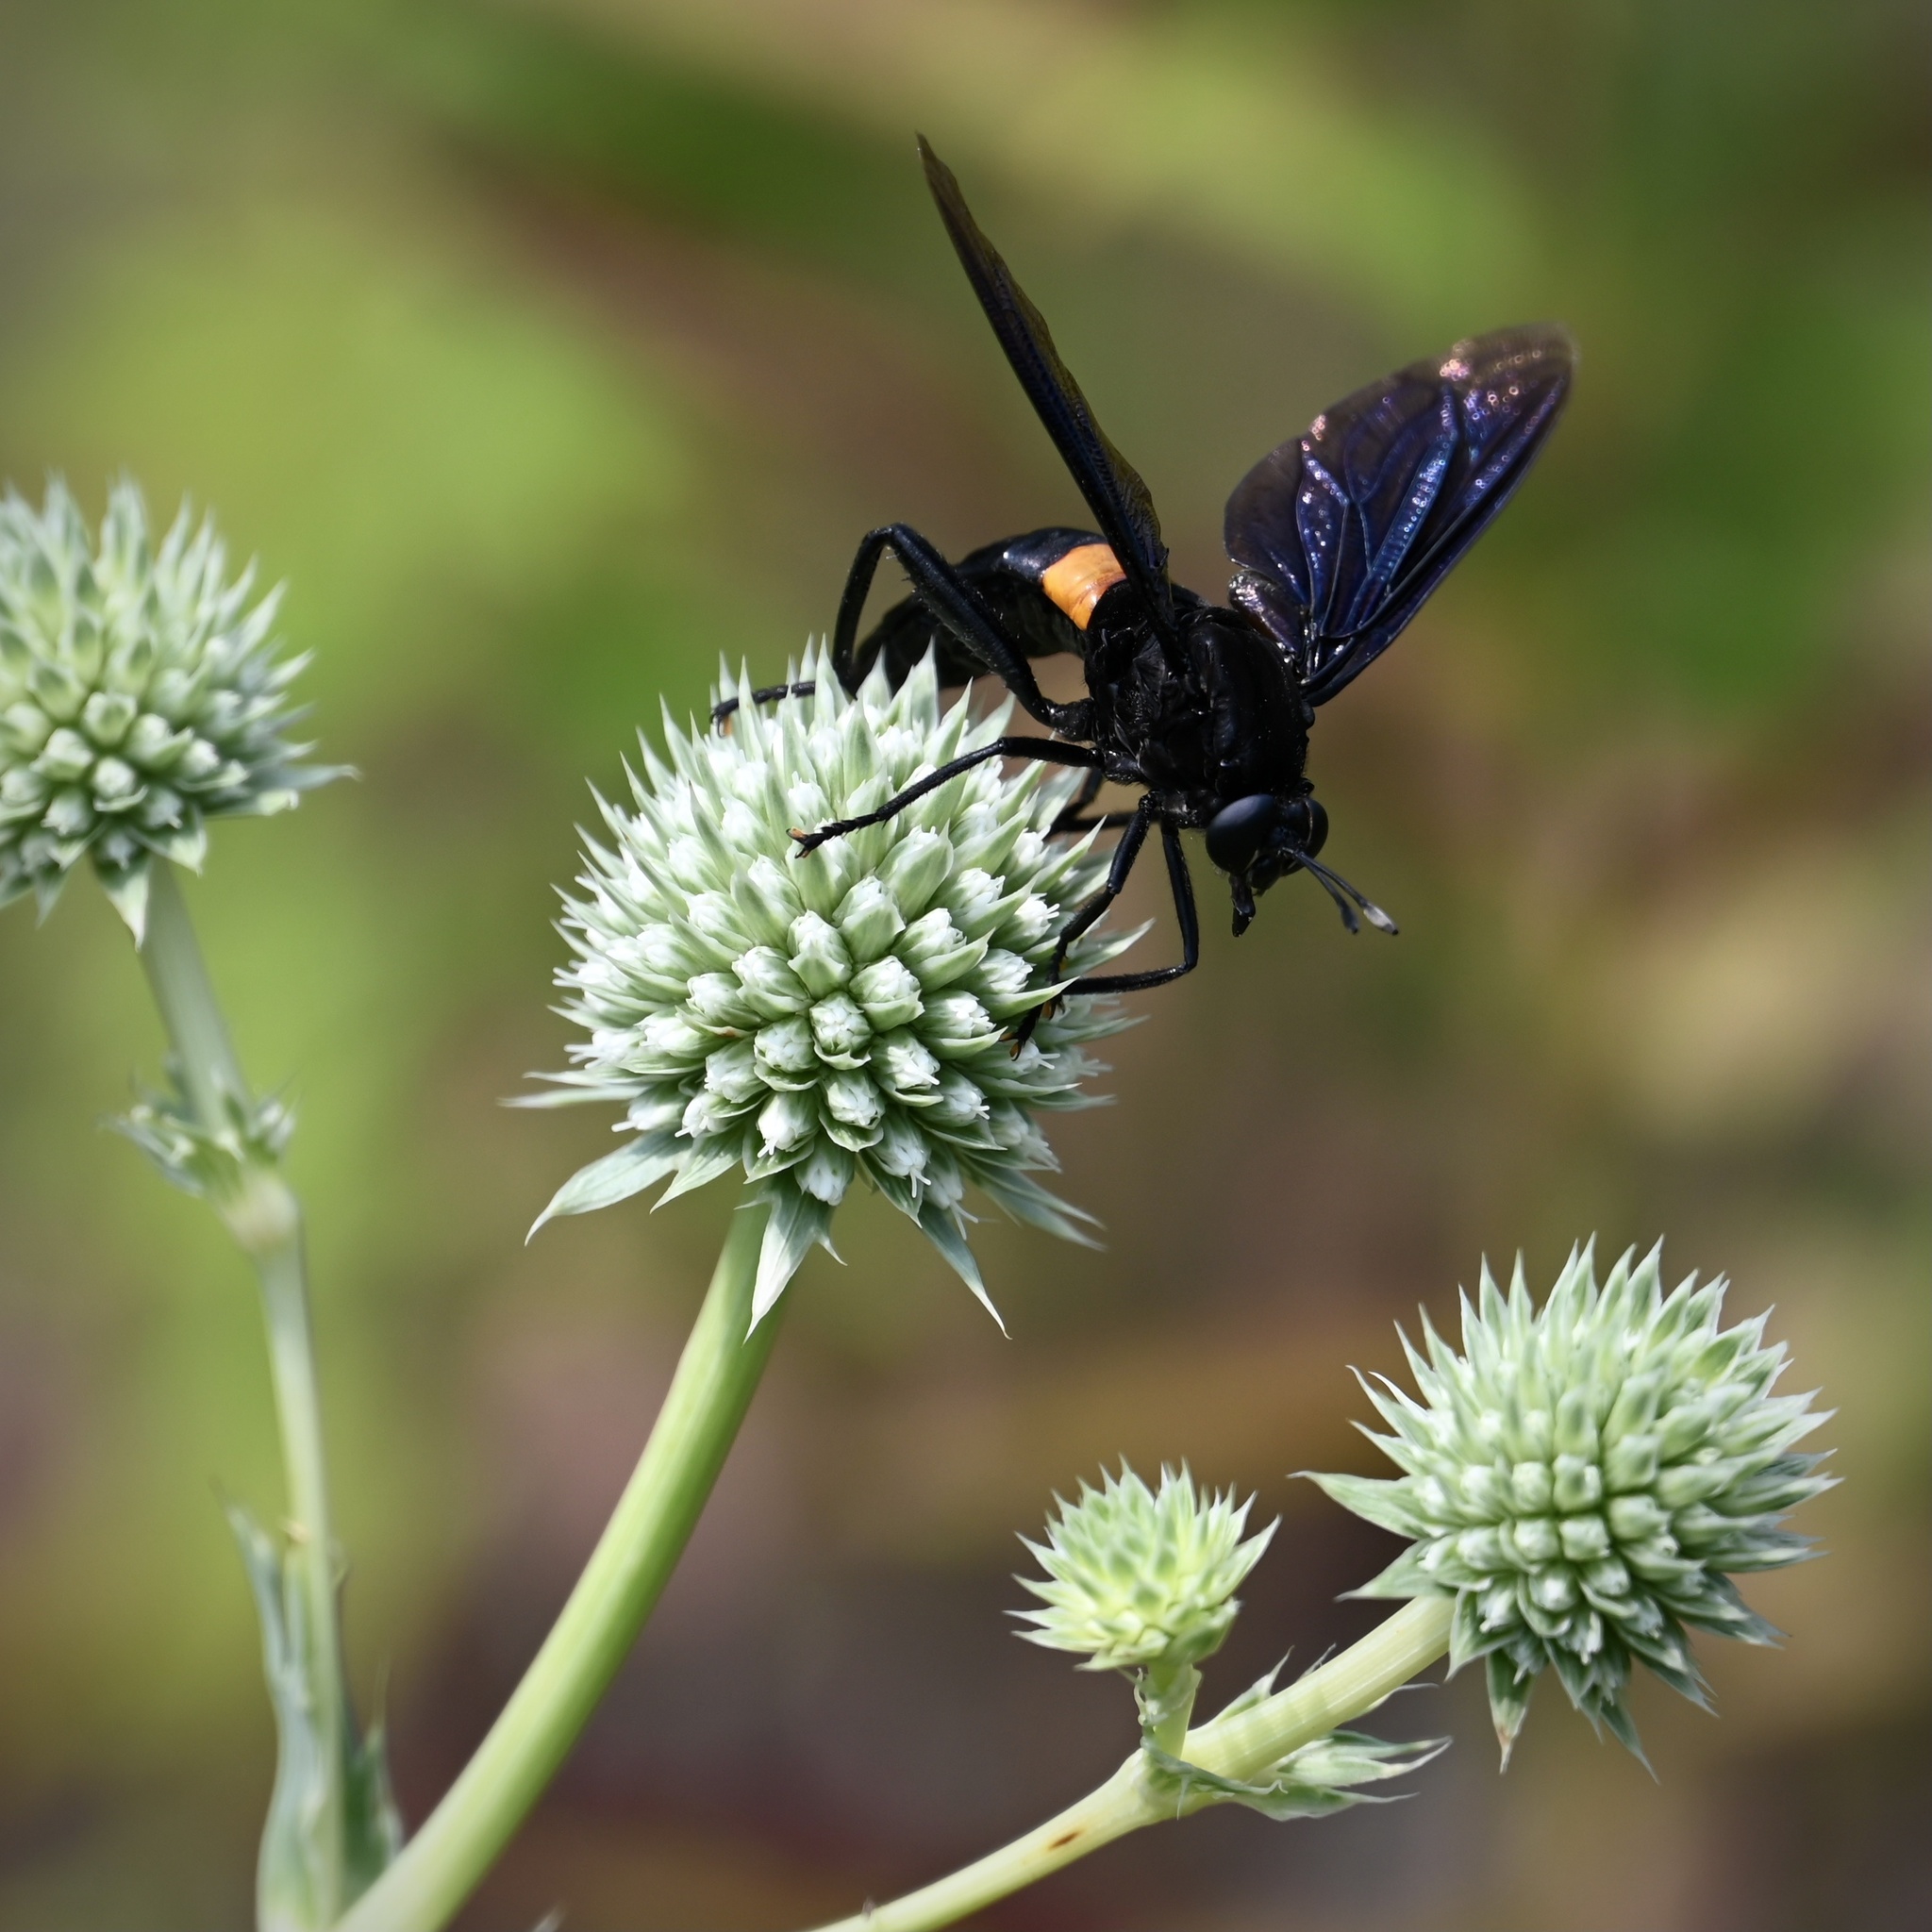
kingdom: Animalia
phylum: Arthropoda
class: Insecta
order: Diptera
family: Mydidae
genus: Mydas
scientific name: Mydas clavatus
